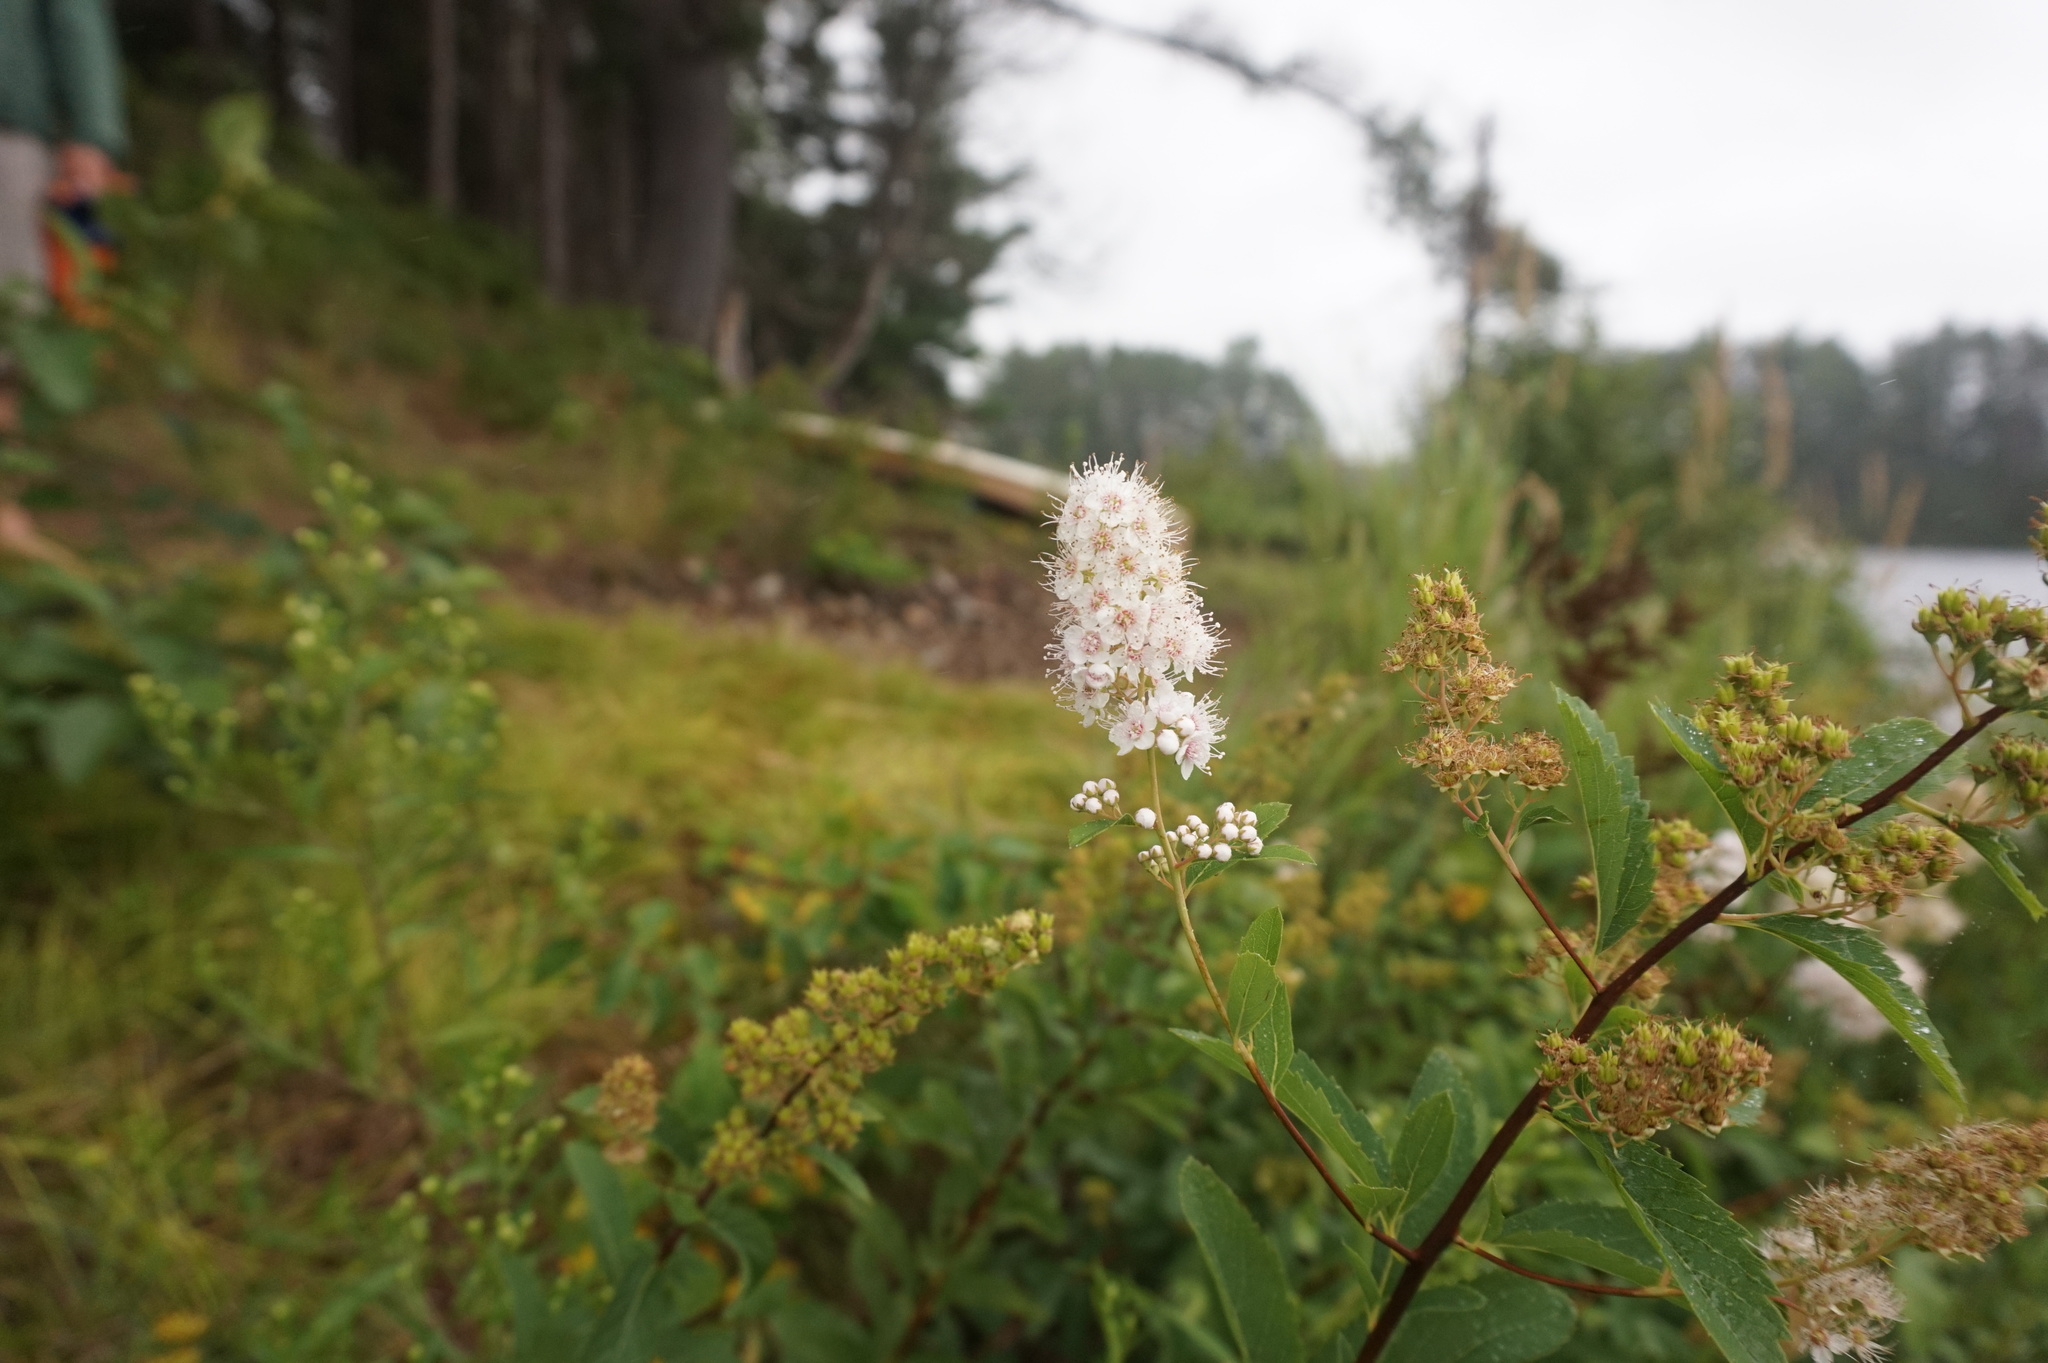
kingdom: Plantae
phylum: Tracheophyta
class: Magnoliopsida
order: Rosales
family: Rosaceae
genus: Spiraea
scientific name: Spiraea alba
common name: Pale bridewort
